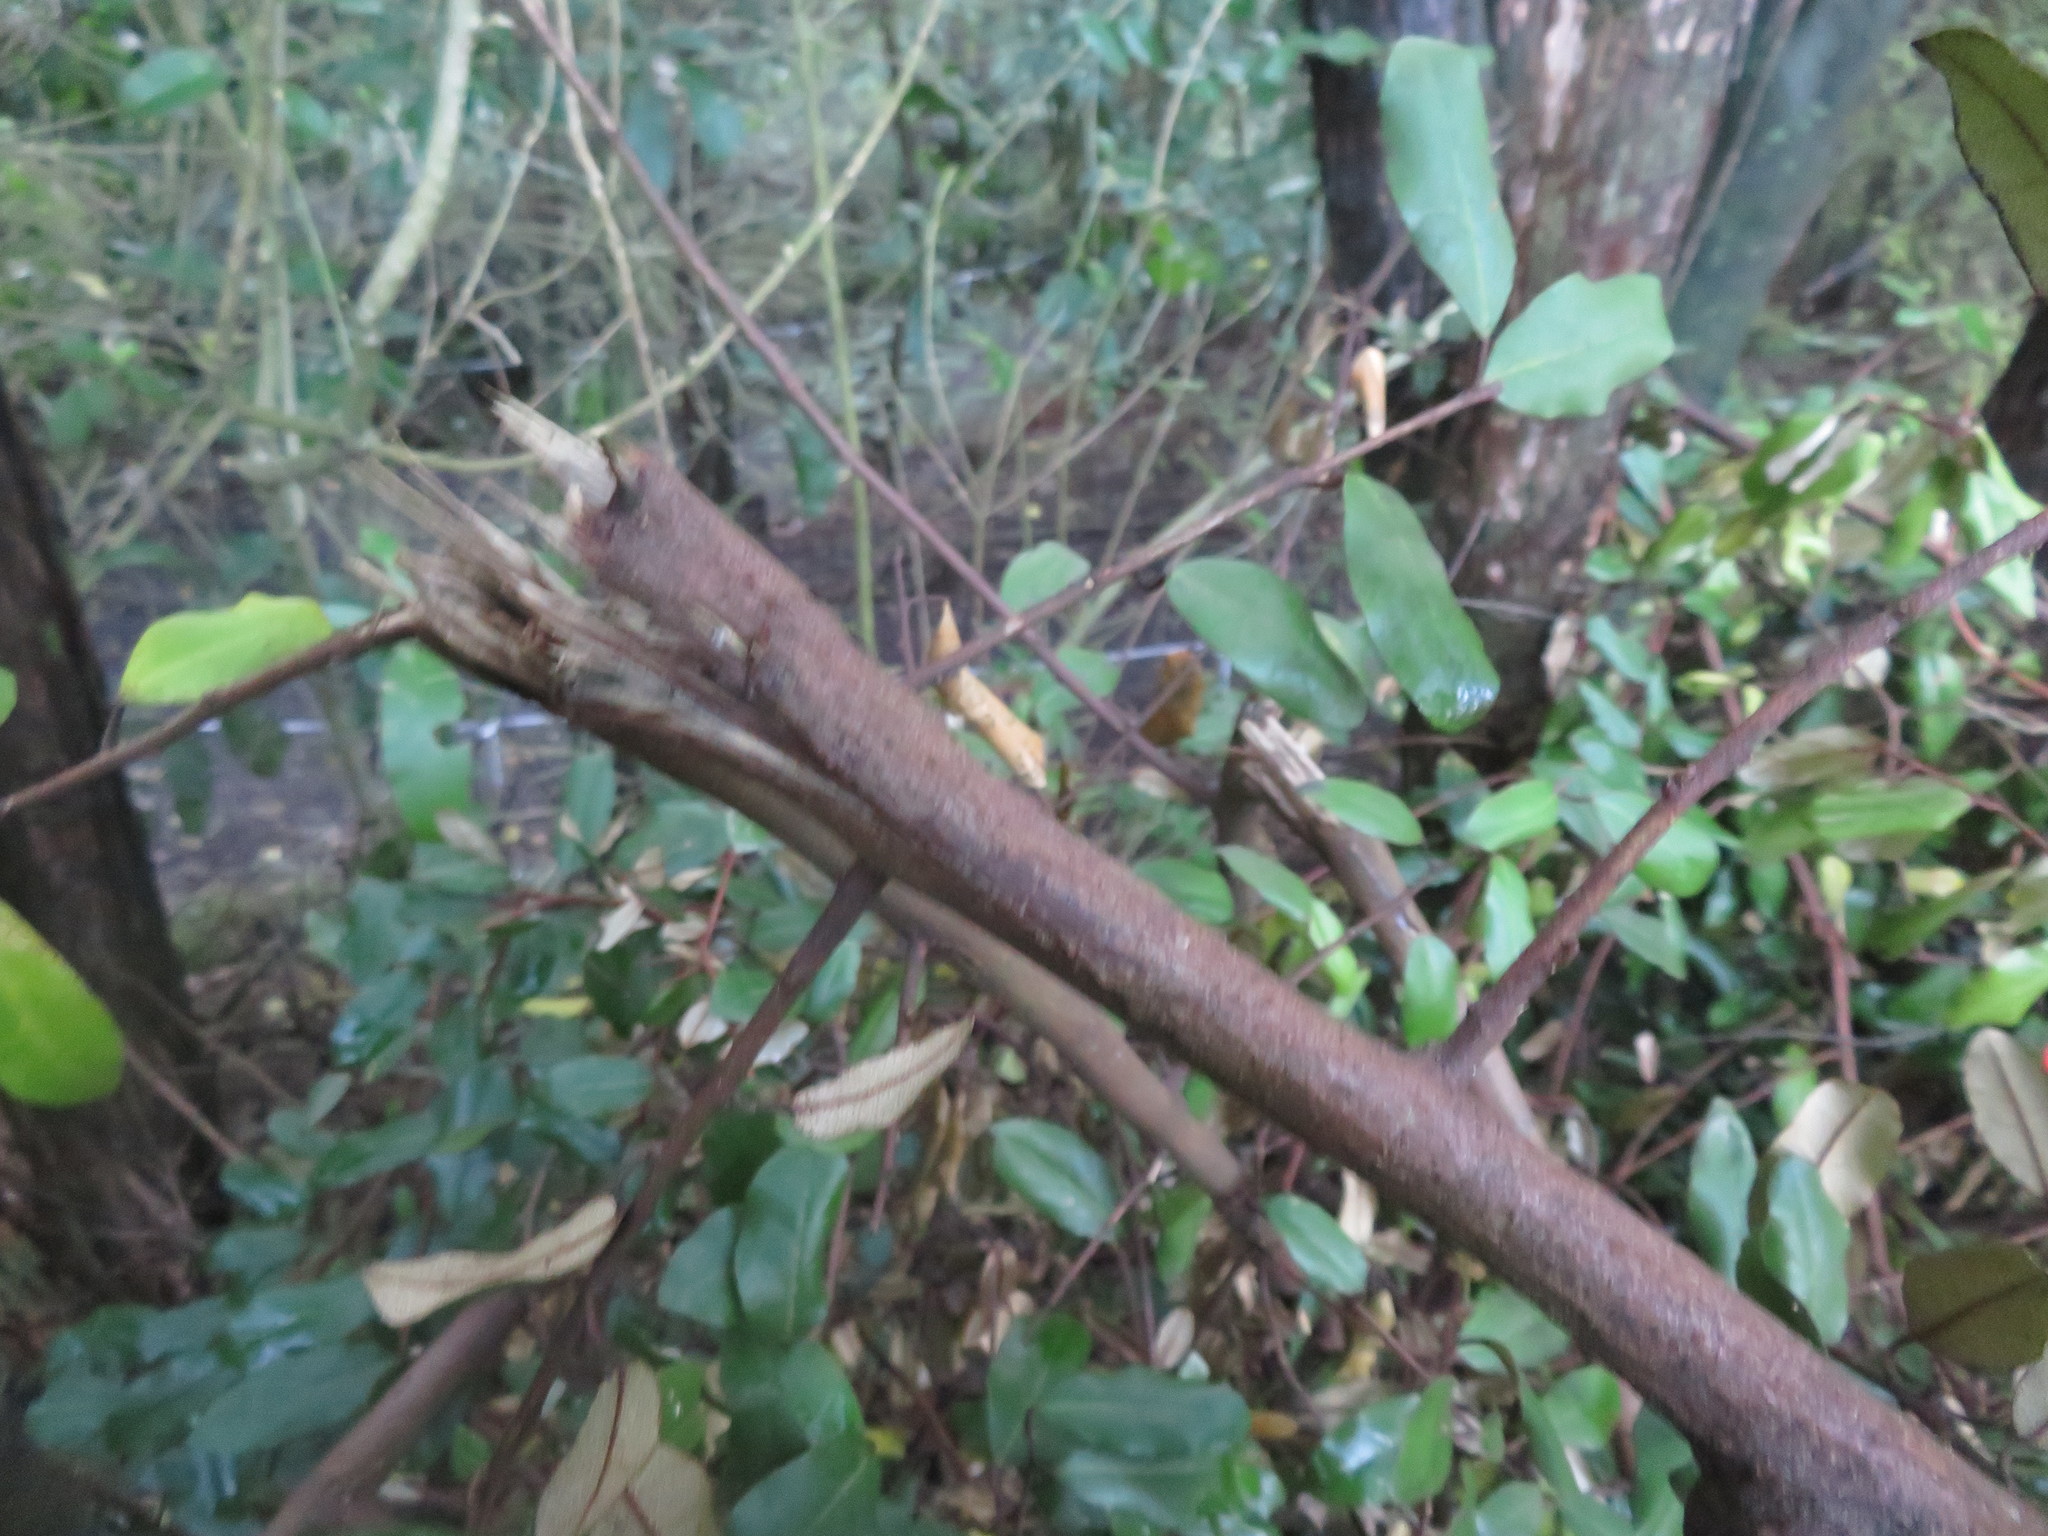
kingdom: Plantae
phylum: Tracheophyta
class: Magnoliopsida
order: Rosales
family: Elaeagnaceae
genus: Elaeagnus
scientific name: Elaeagnus reflexa
